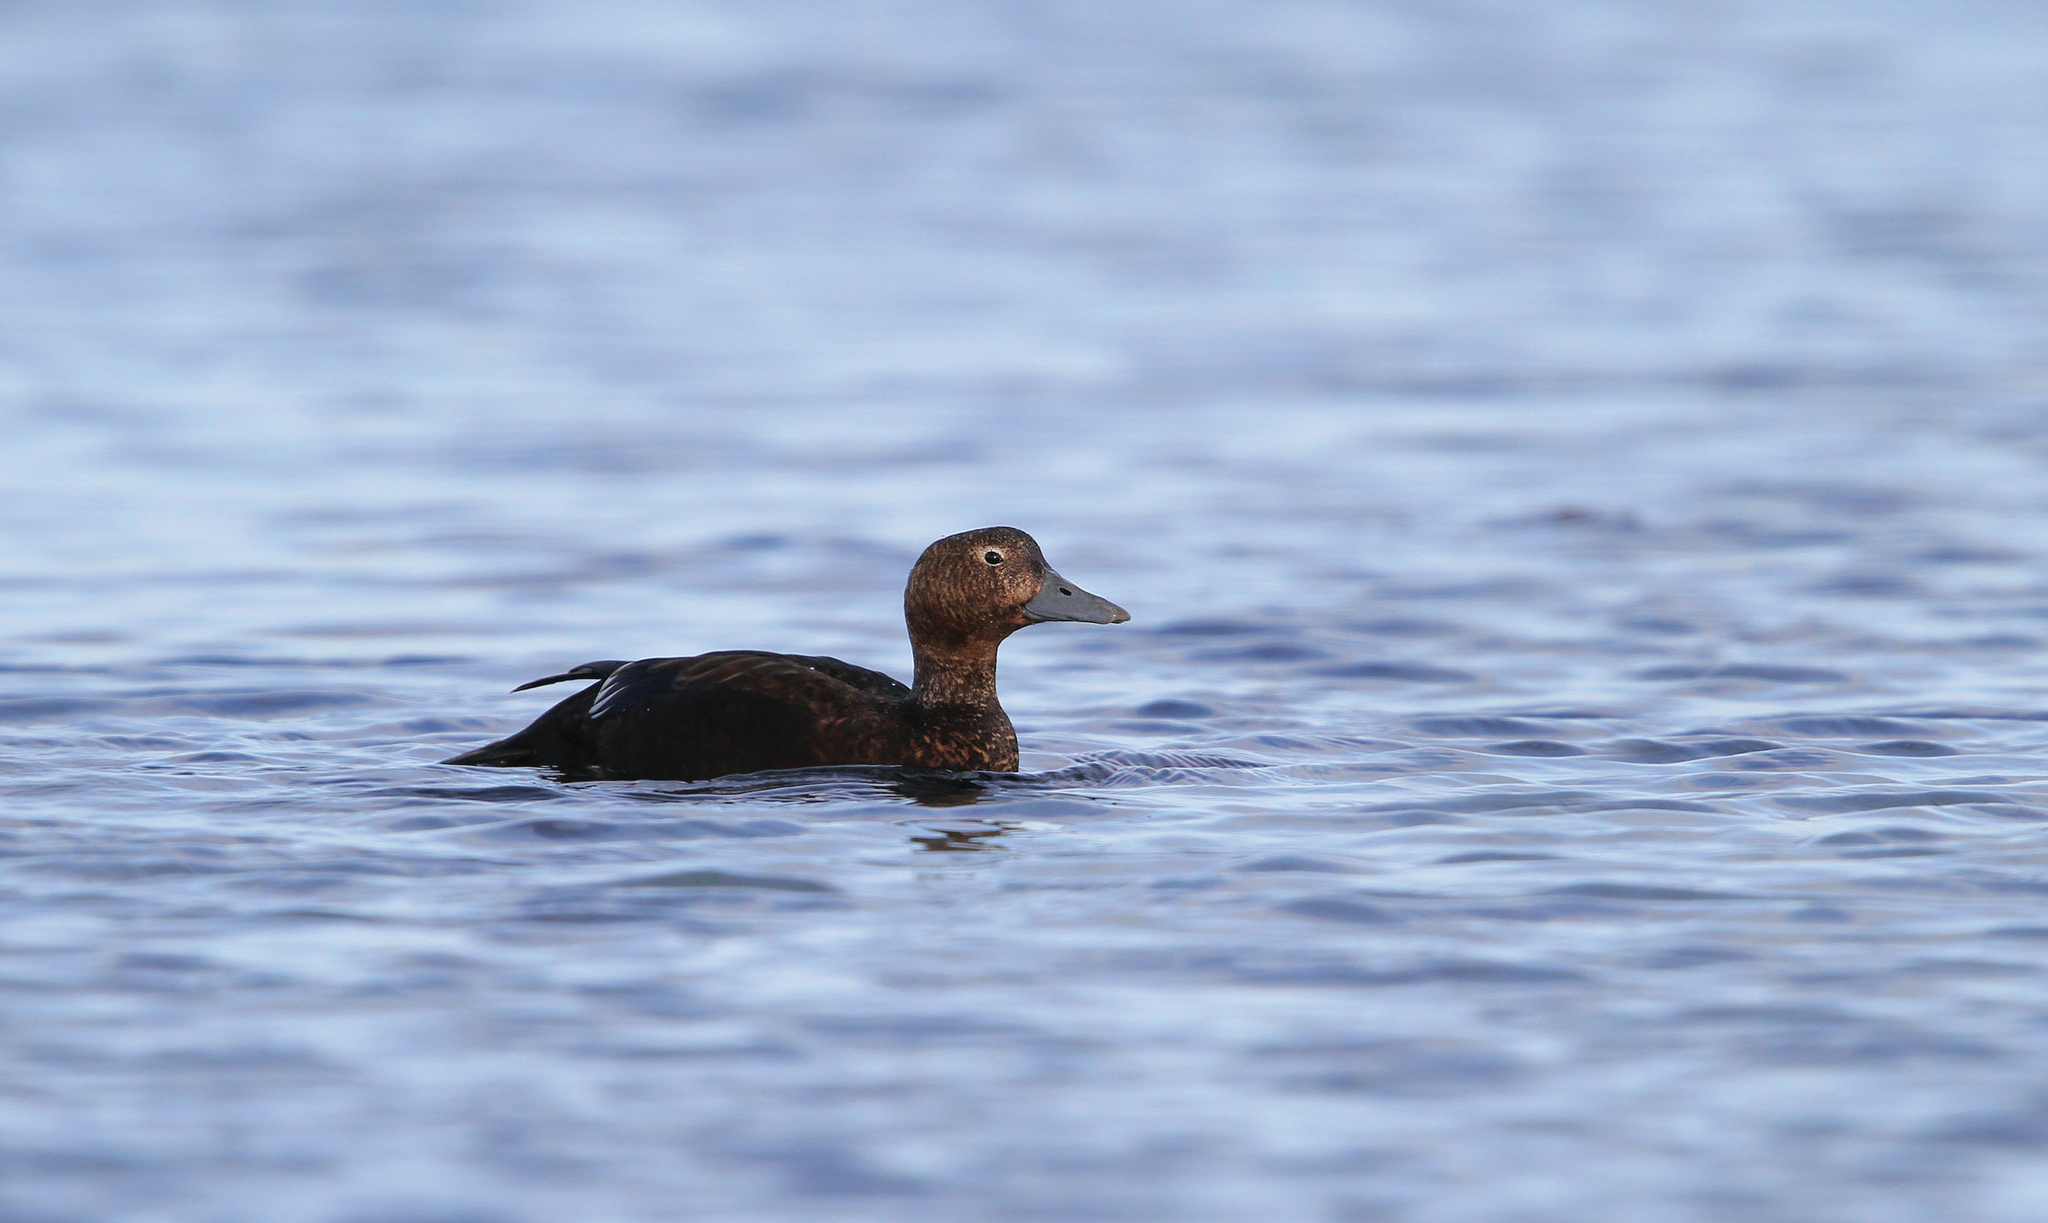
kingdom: Animalia
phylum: Chordata
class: Aves
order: Anseriformes
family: Anatidae
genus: Polysticta
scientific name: Polysticta stelleri
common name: Steller's eider
